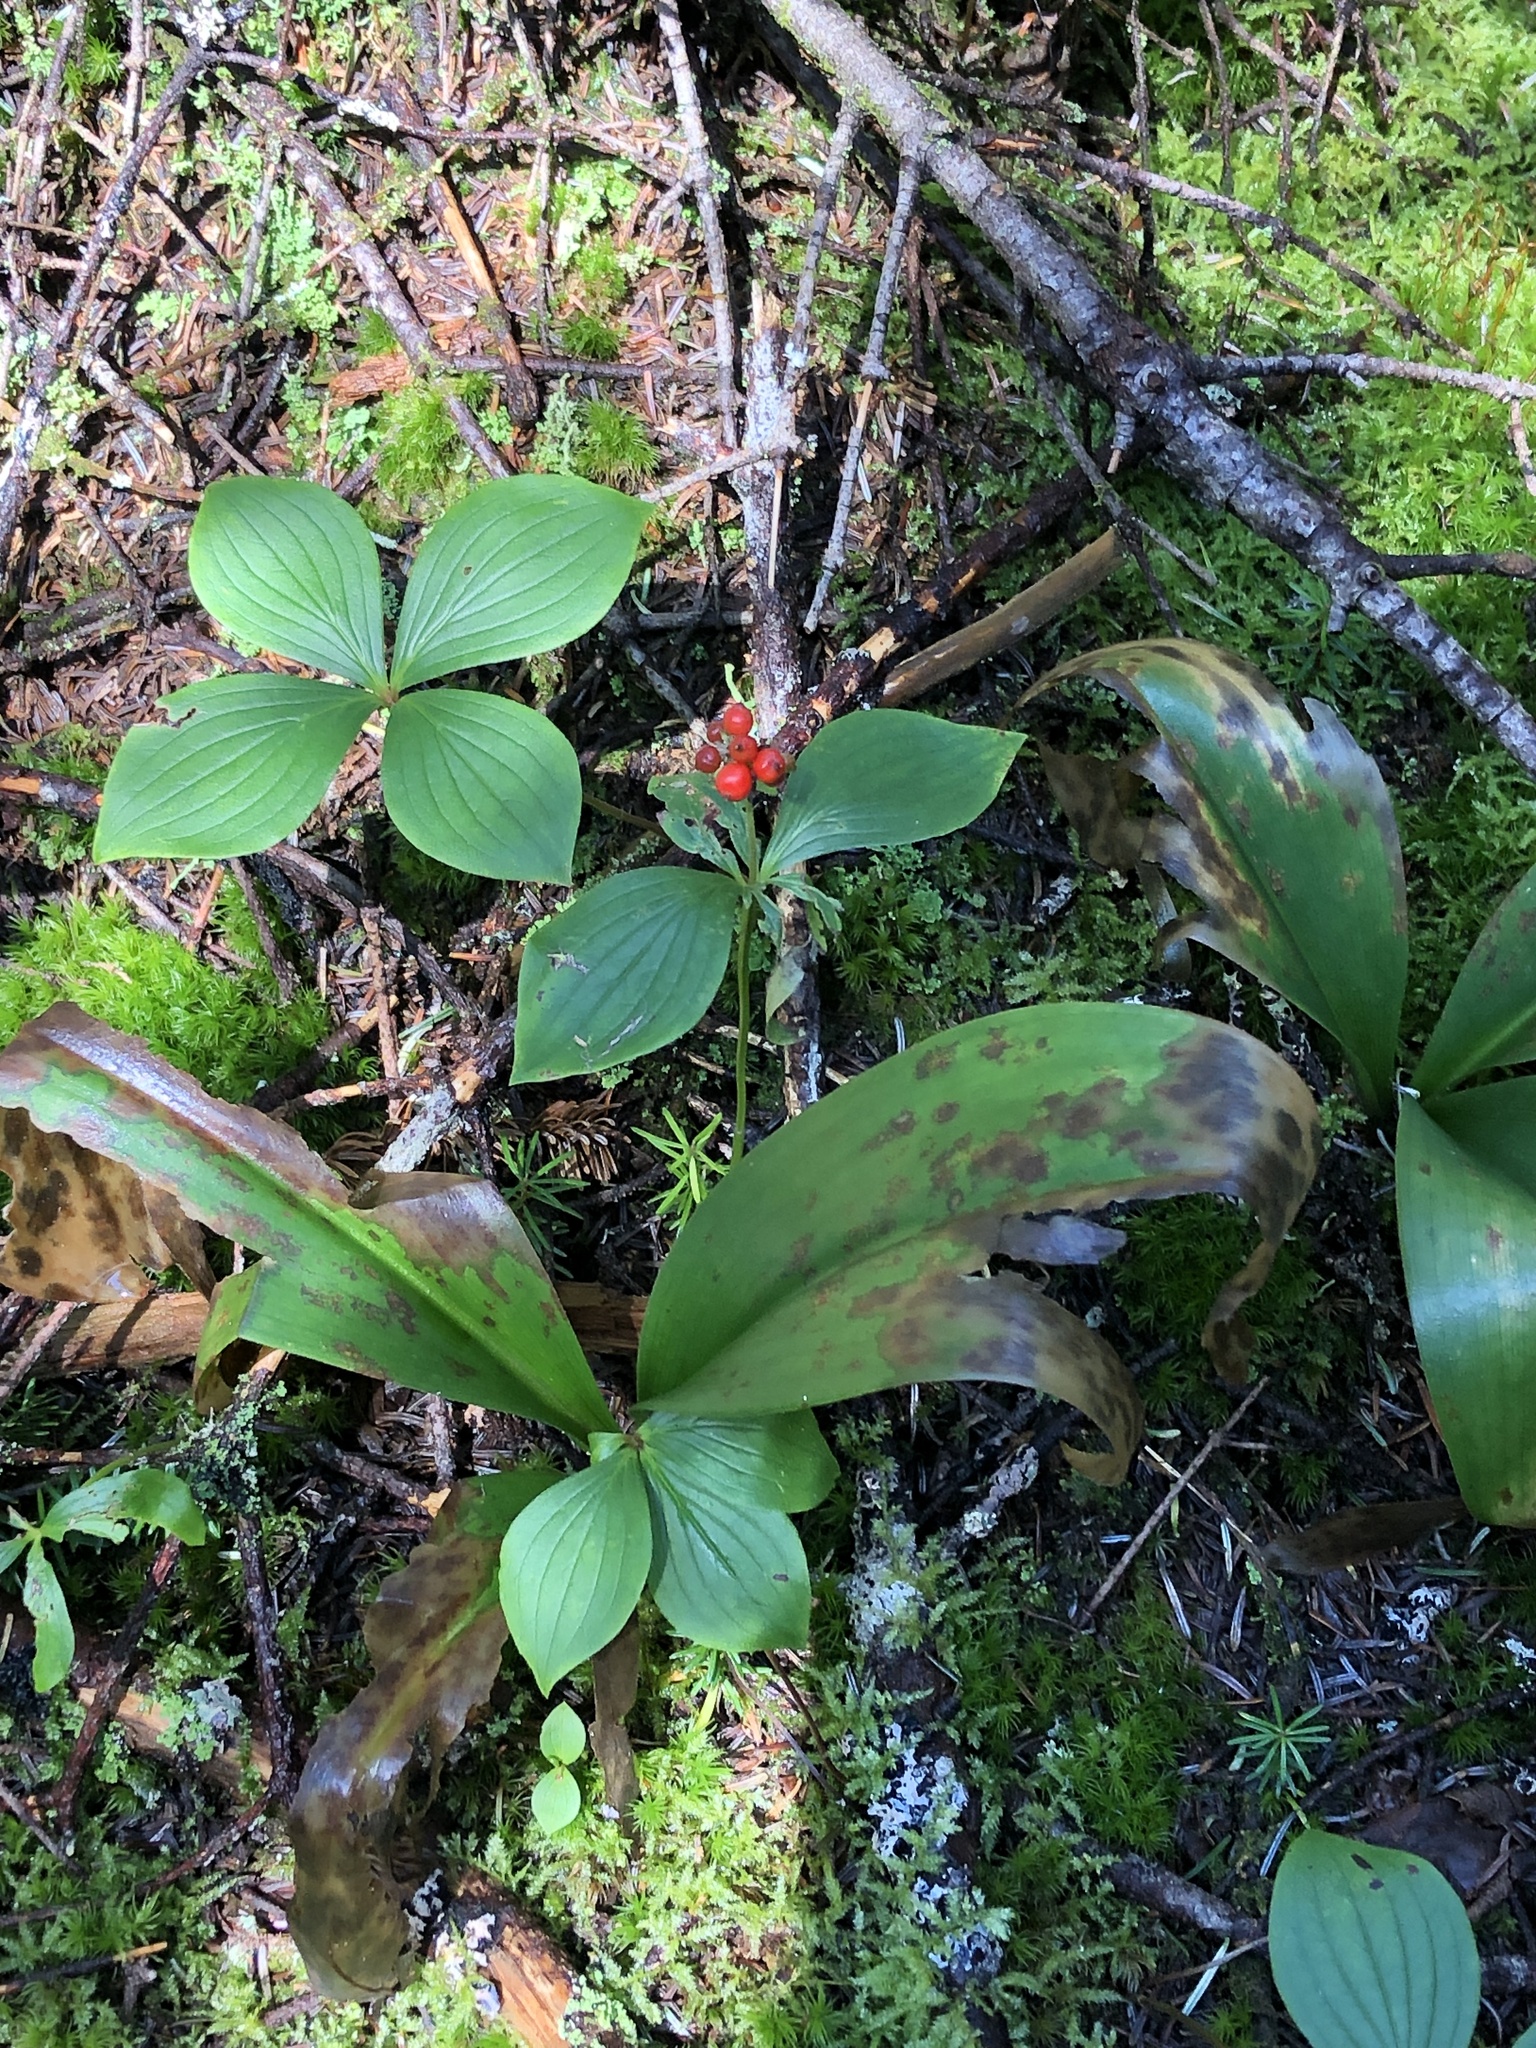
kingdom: Plantae
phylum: Tracheophyta
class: Magnoliopsida
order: Cornales
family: Cornaceae
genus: Cornus
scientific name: Cornus canadensis
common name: Creeping dogwood
